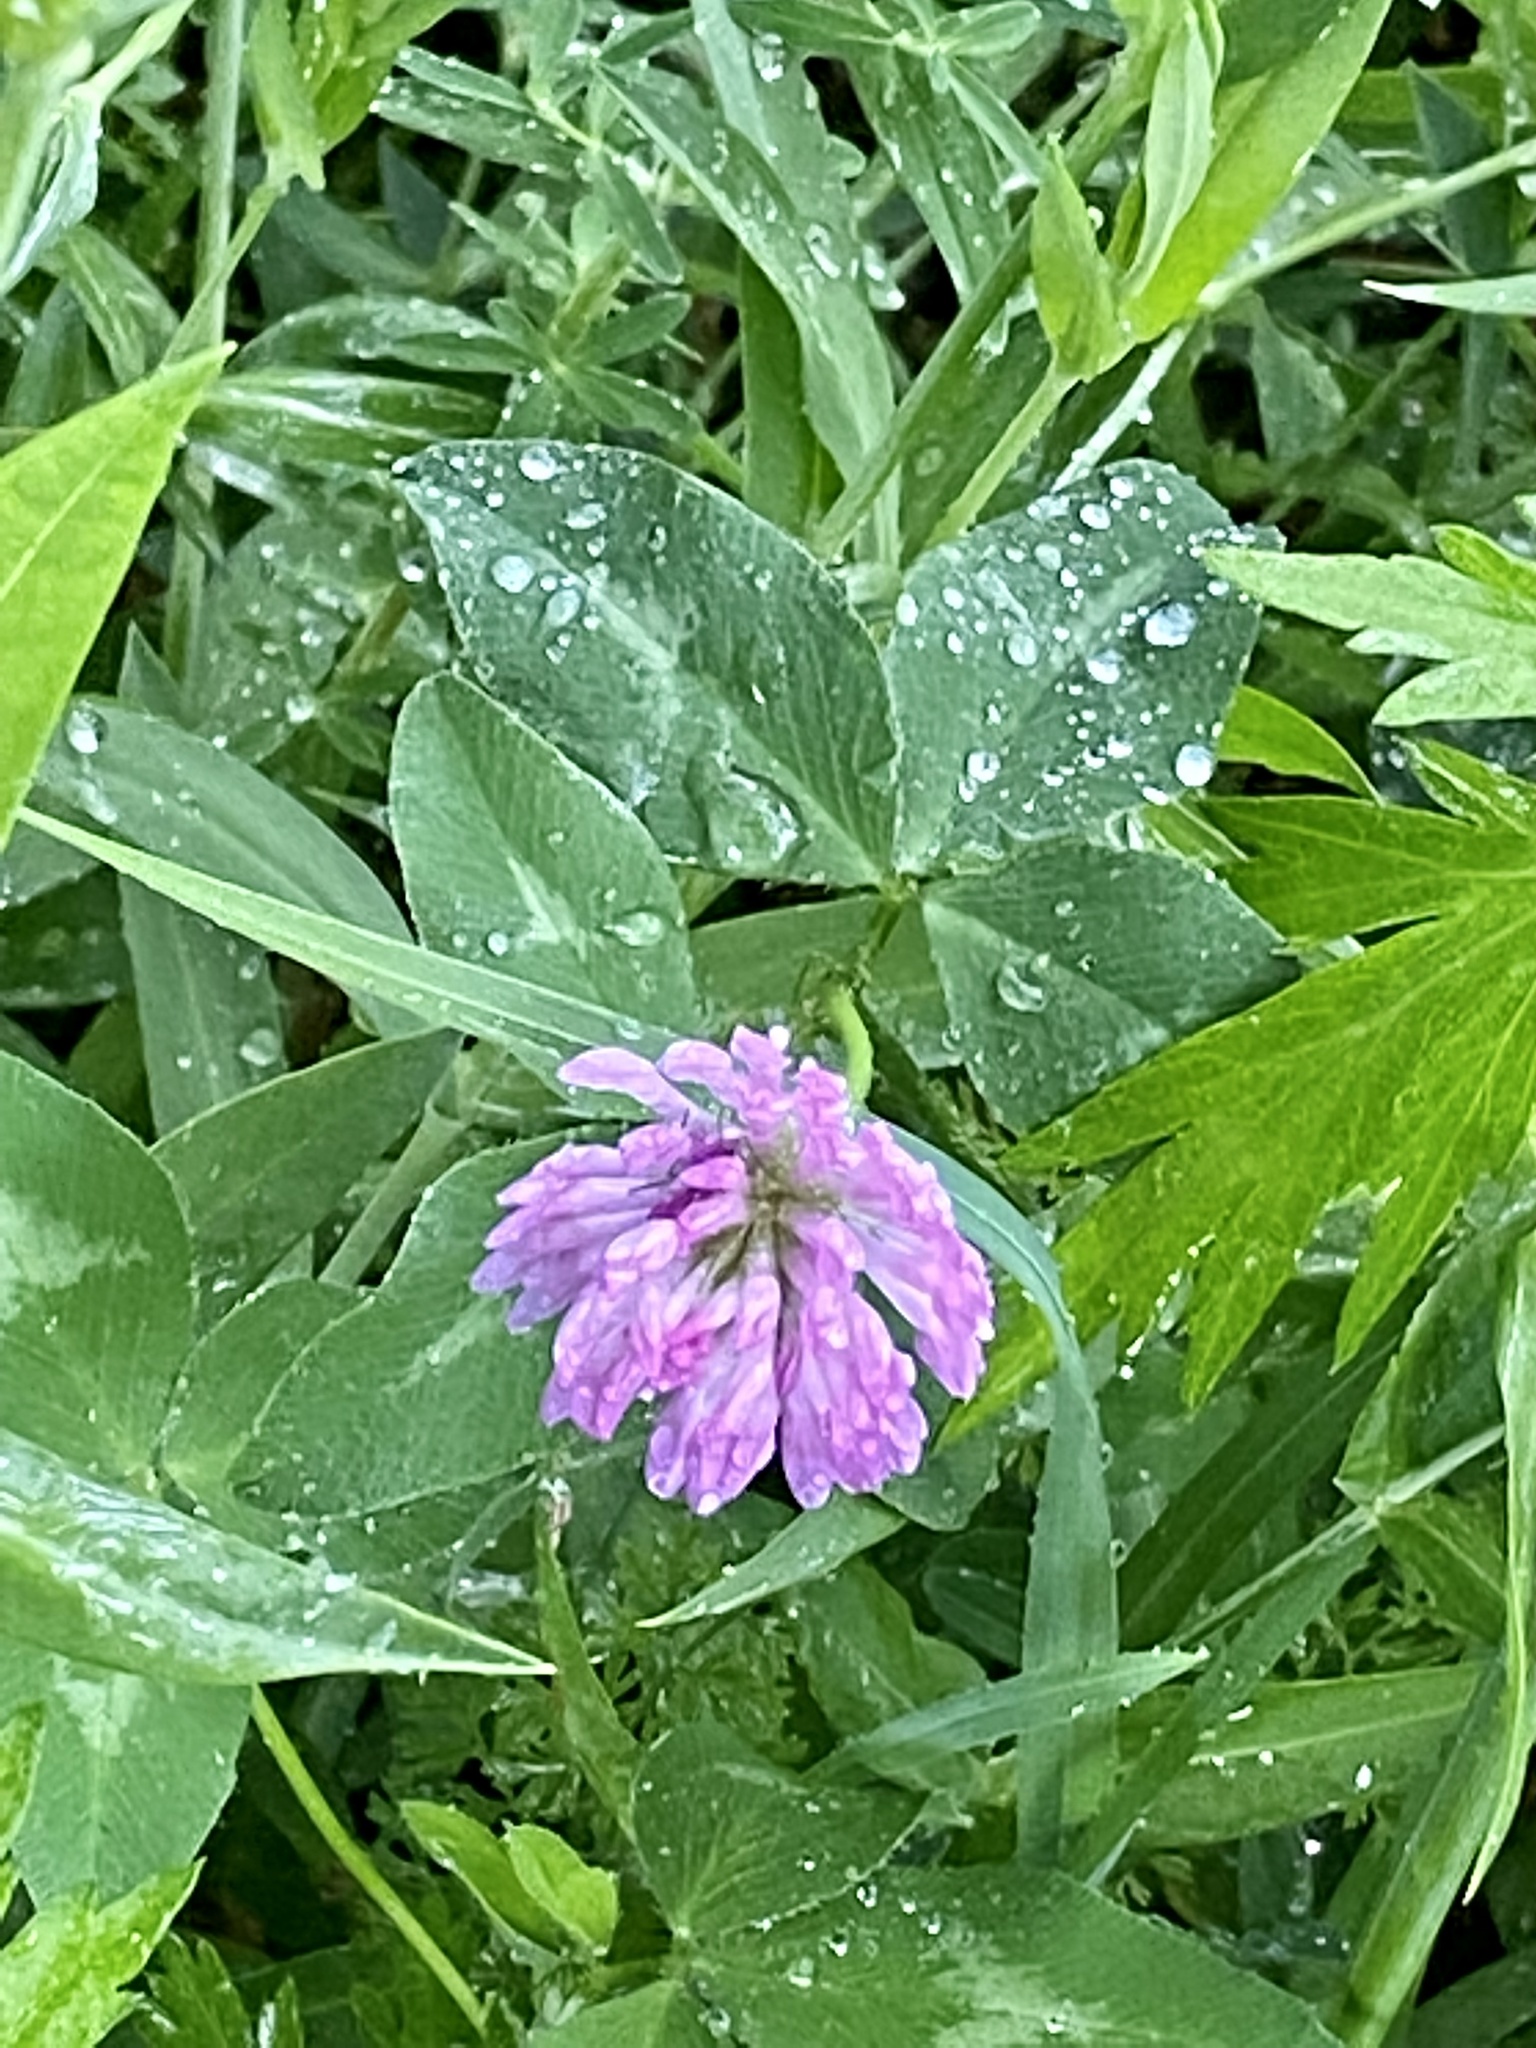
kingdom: Plantae
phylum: Tracheophyta
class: Magnoliopsida
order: Fabales
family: Fabaceae
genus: Trifolium
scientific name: Trifolium pratense
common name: Red clover
